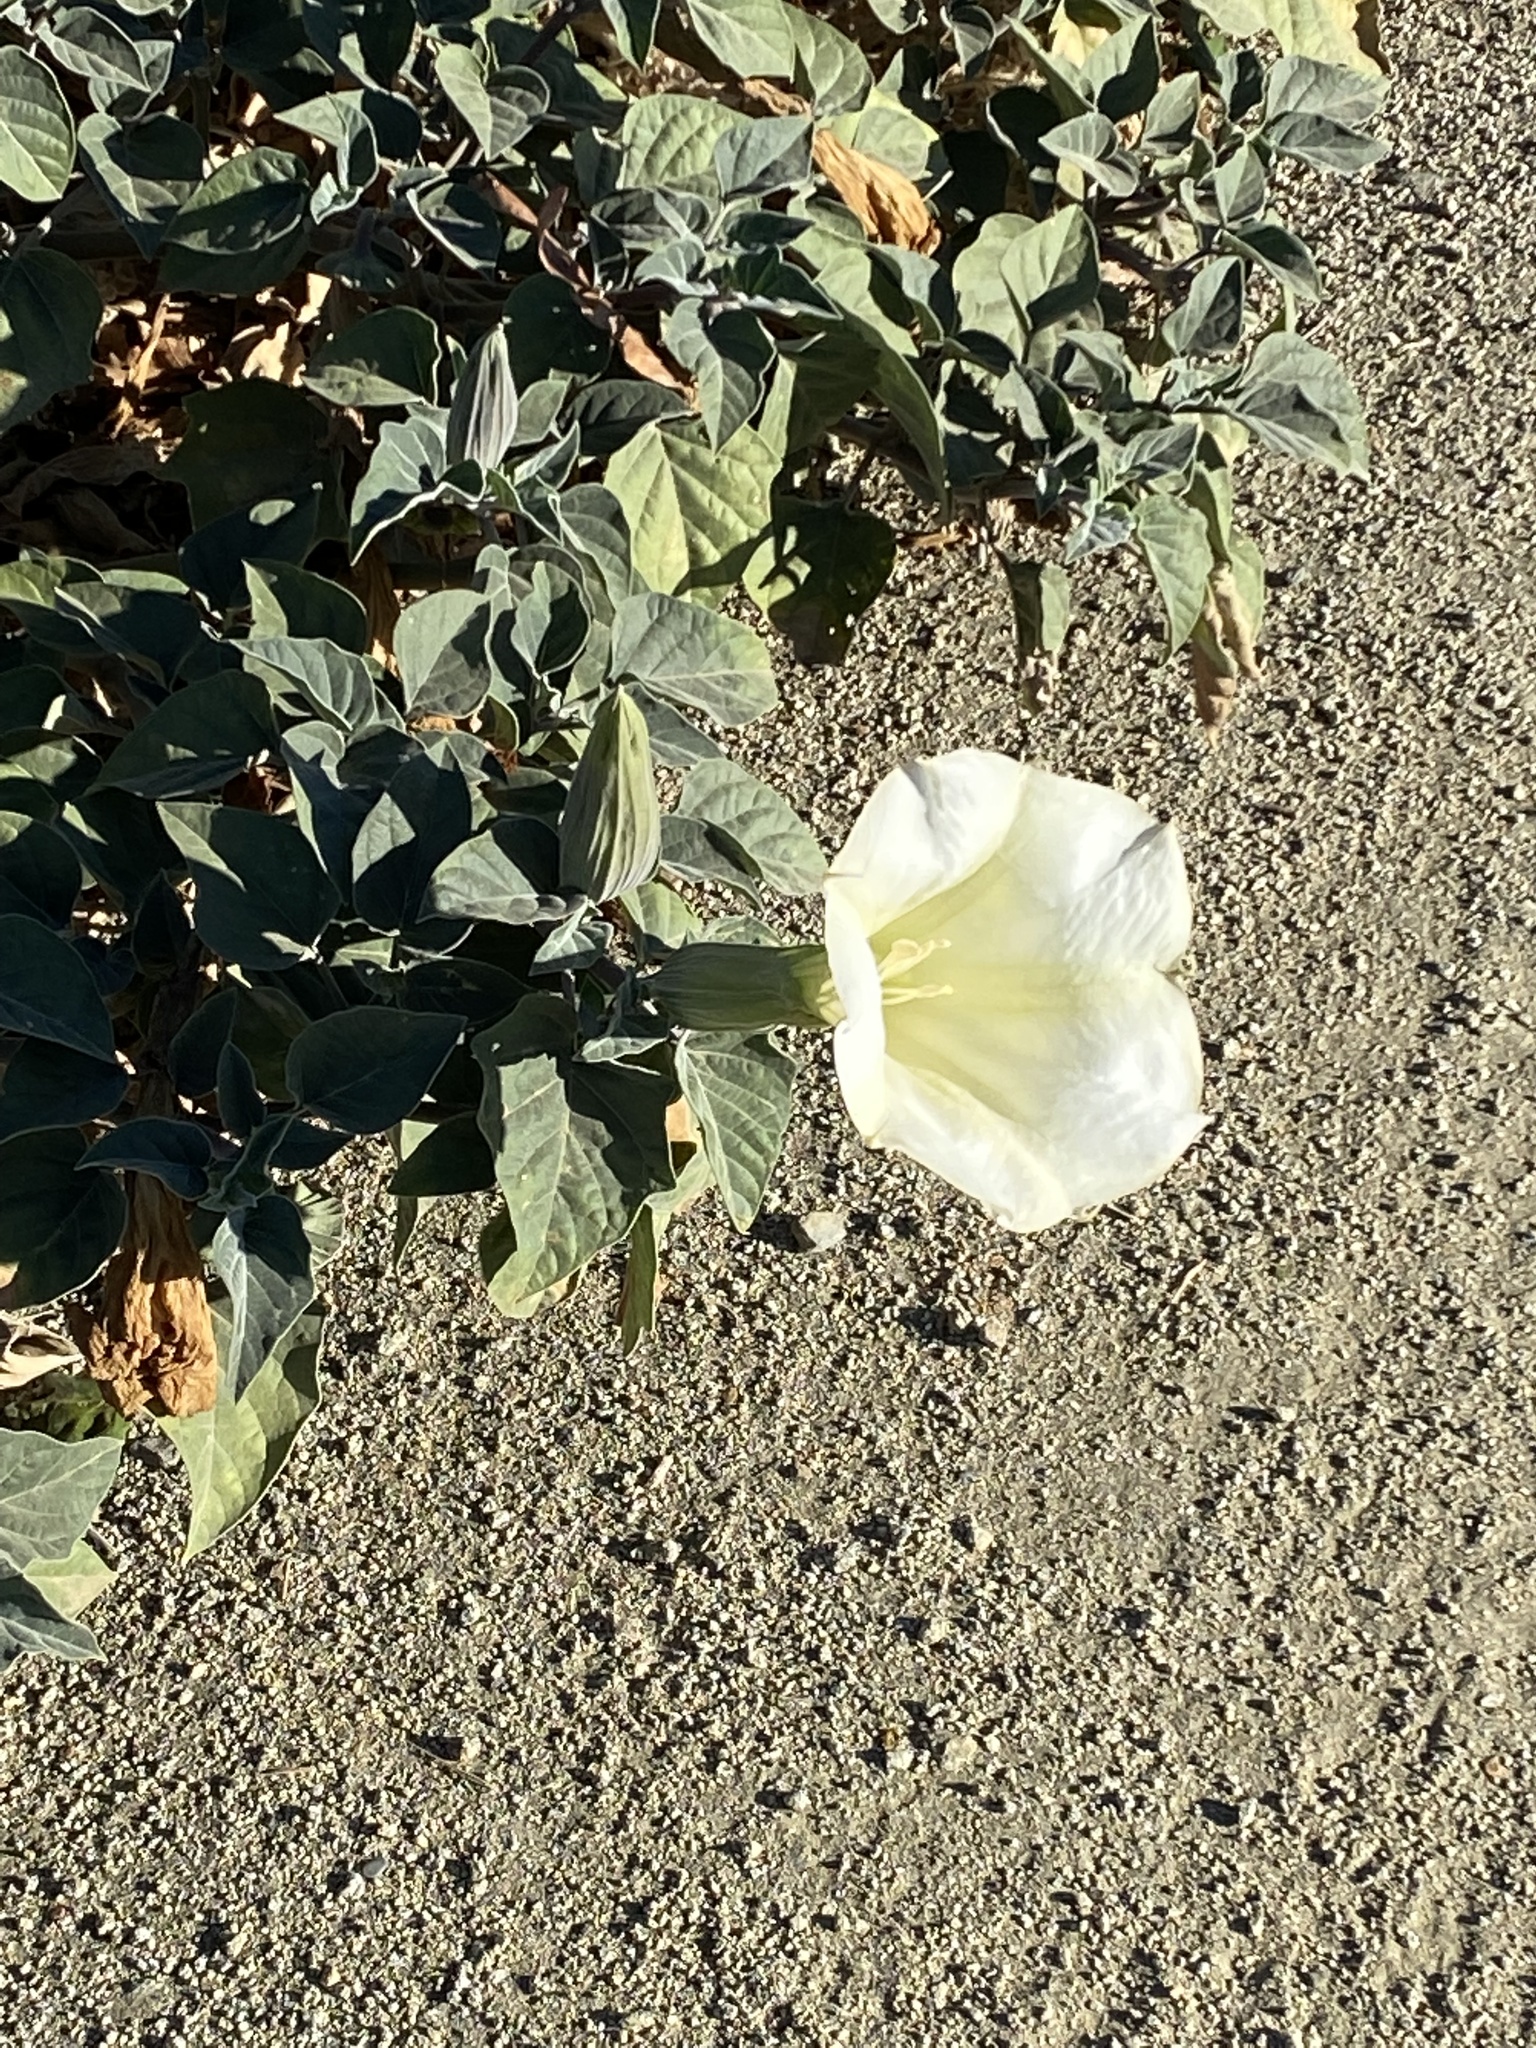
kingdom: Plantae
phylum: Tracheophyta
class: Magnoliopsida
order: Solanales
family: Solanaceae
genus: Datura
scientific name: Datura wrightii
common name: Sacred thorn-apple
